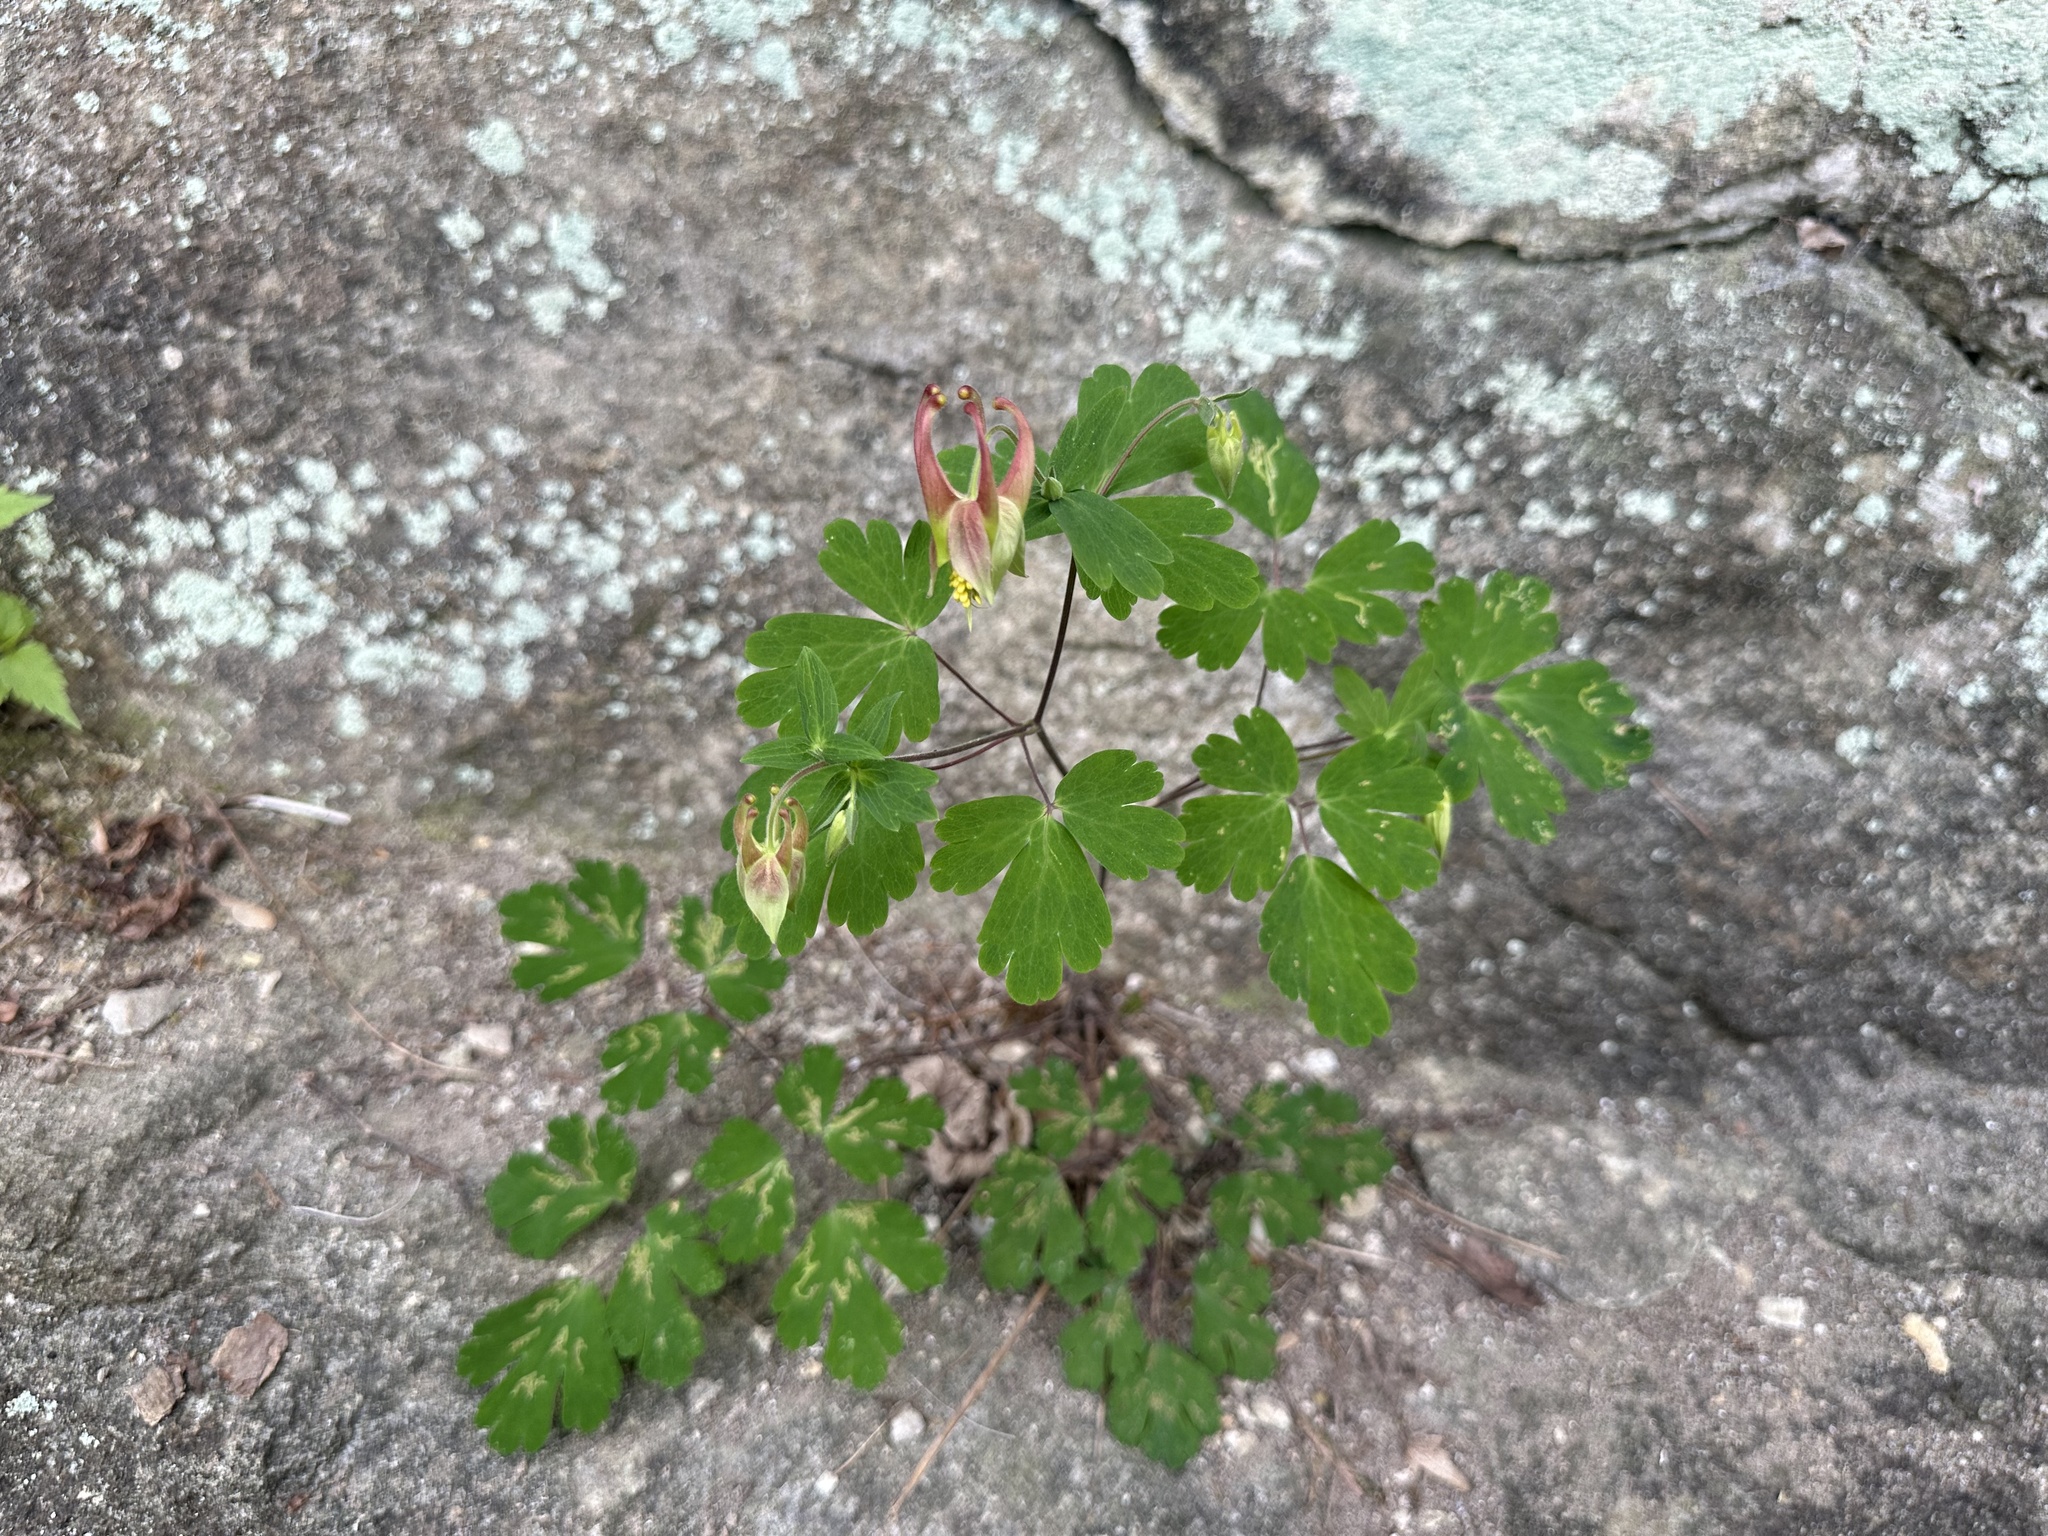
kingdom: Plantae
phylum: Tracheophyta
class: Magnoliopsida
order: Ranunculales
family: Ranunculaceae
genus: Aquilegia
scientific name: Aquilegia canadensis
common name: American columbine
